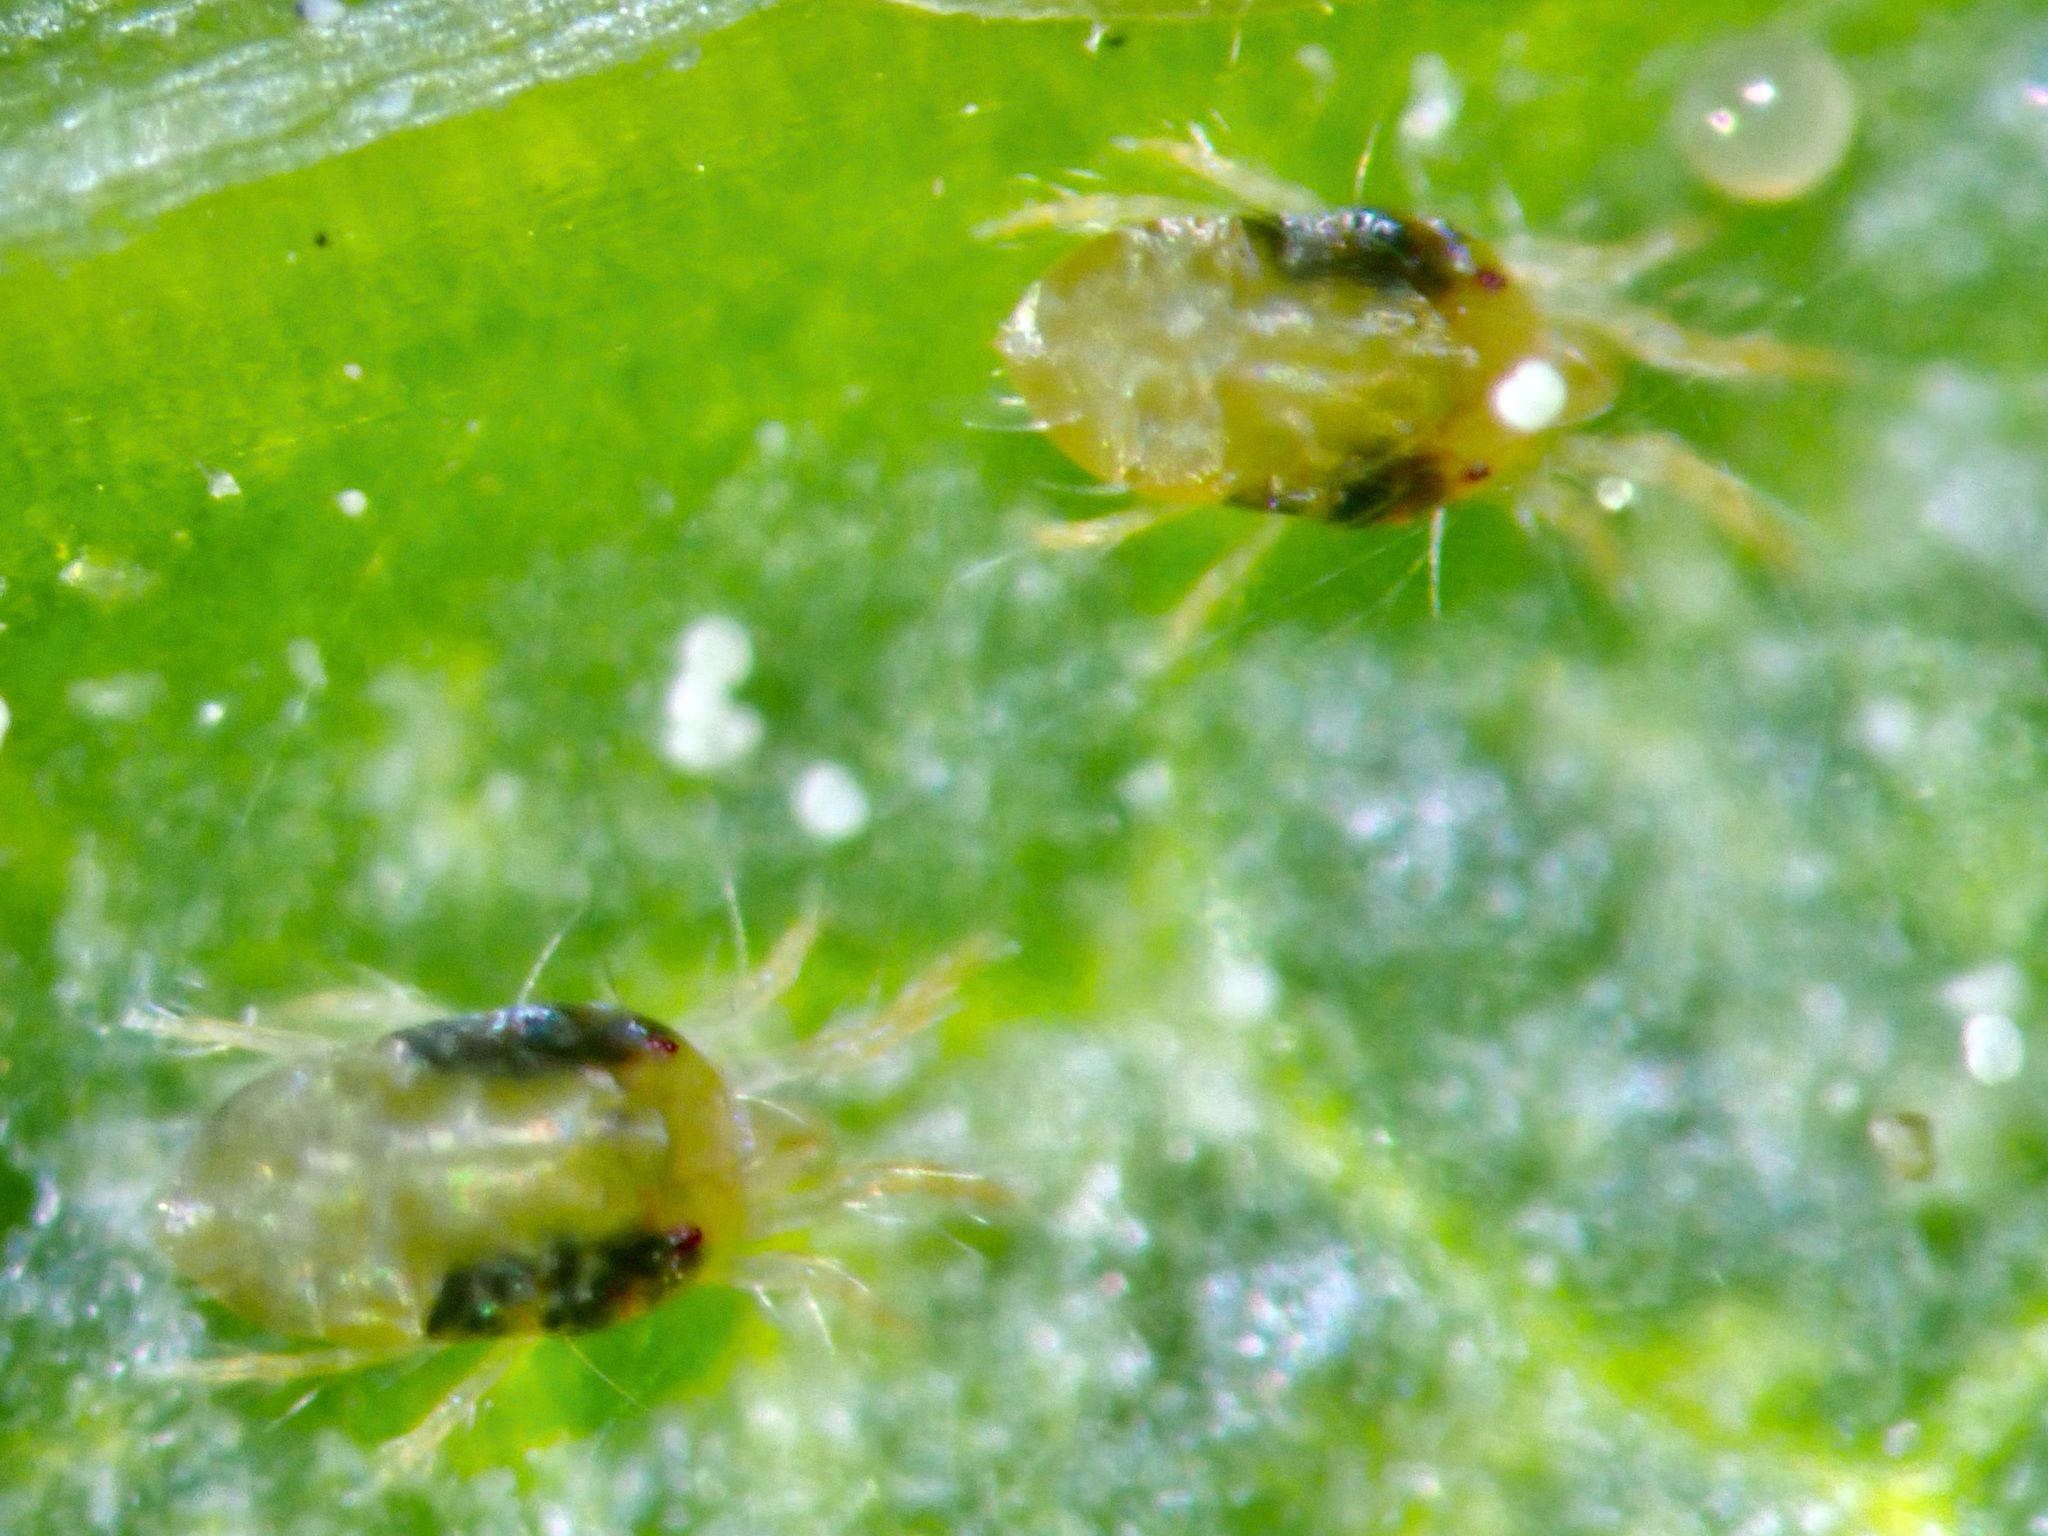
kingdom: Animalia
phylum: Arthropoda
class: Arachnida
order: Trombidiformes
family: Tetranychidae
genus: Tetranychus
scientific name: Tetranychus urticae
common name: Carmine spider mite
